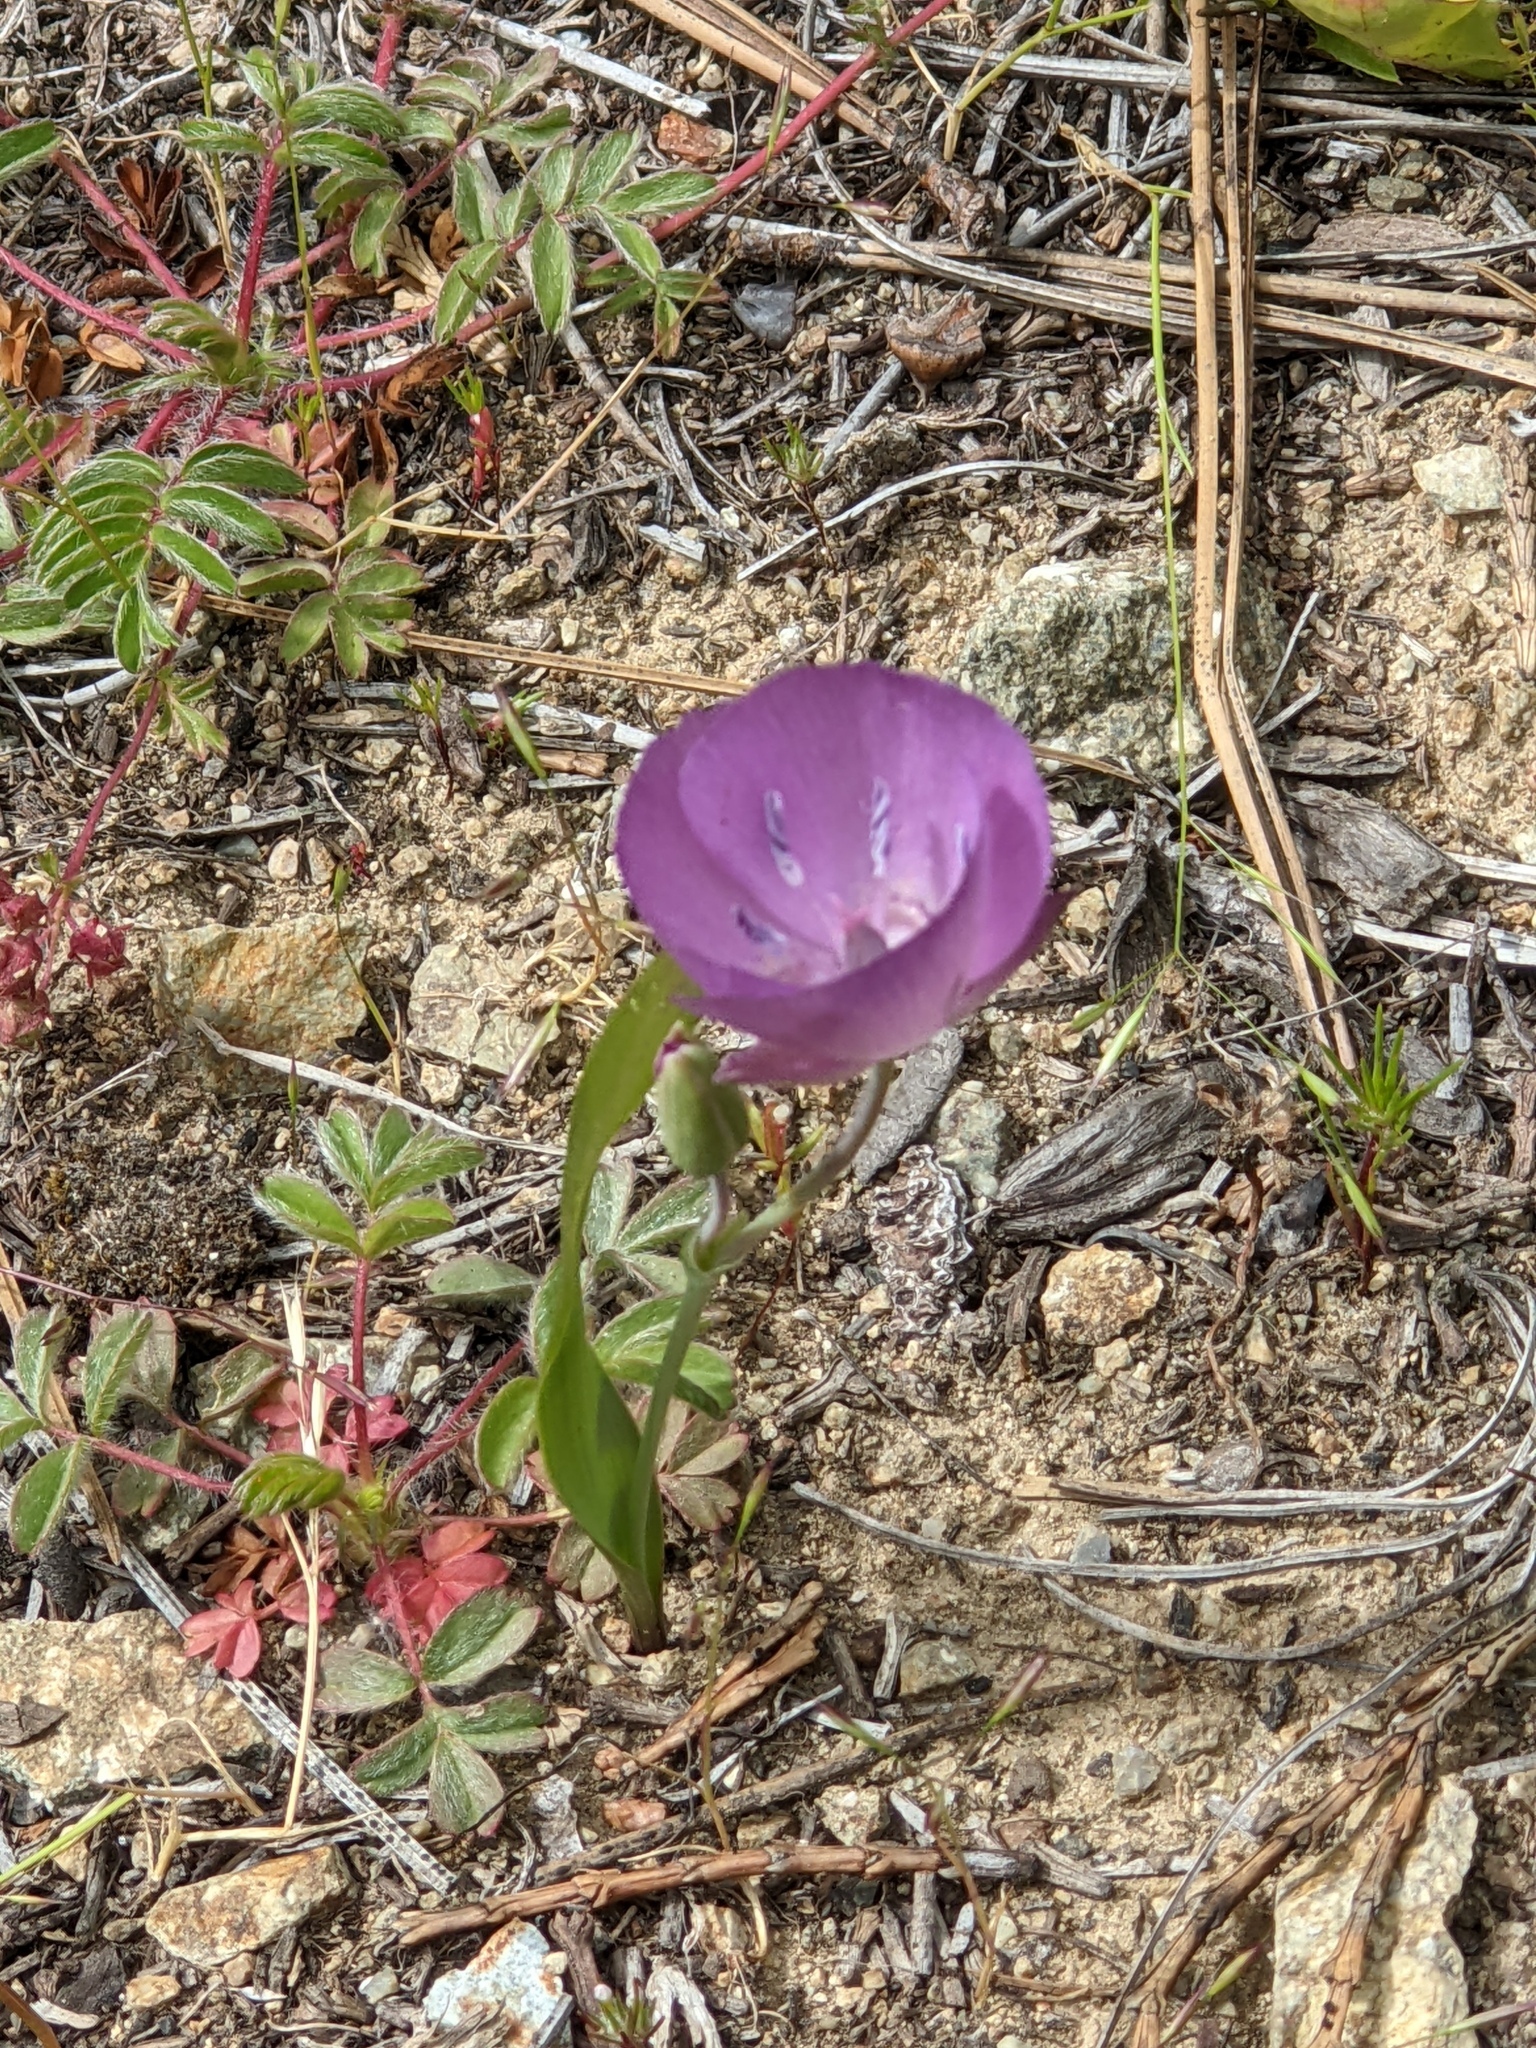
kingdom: Plantae
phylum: Tracheophyta
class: Liliopsida
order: Liliales
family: Liliaceae
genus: Calochortus
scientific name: Calochortus nudus
